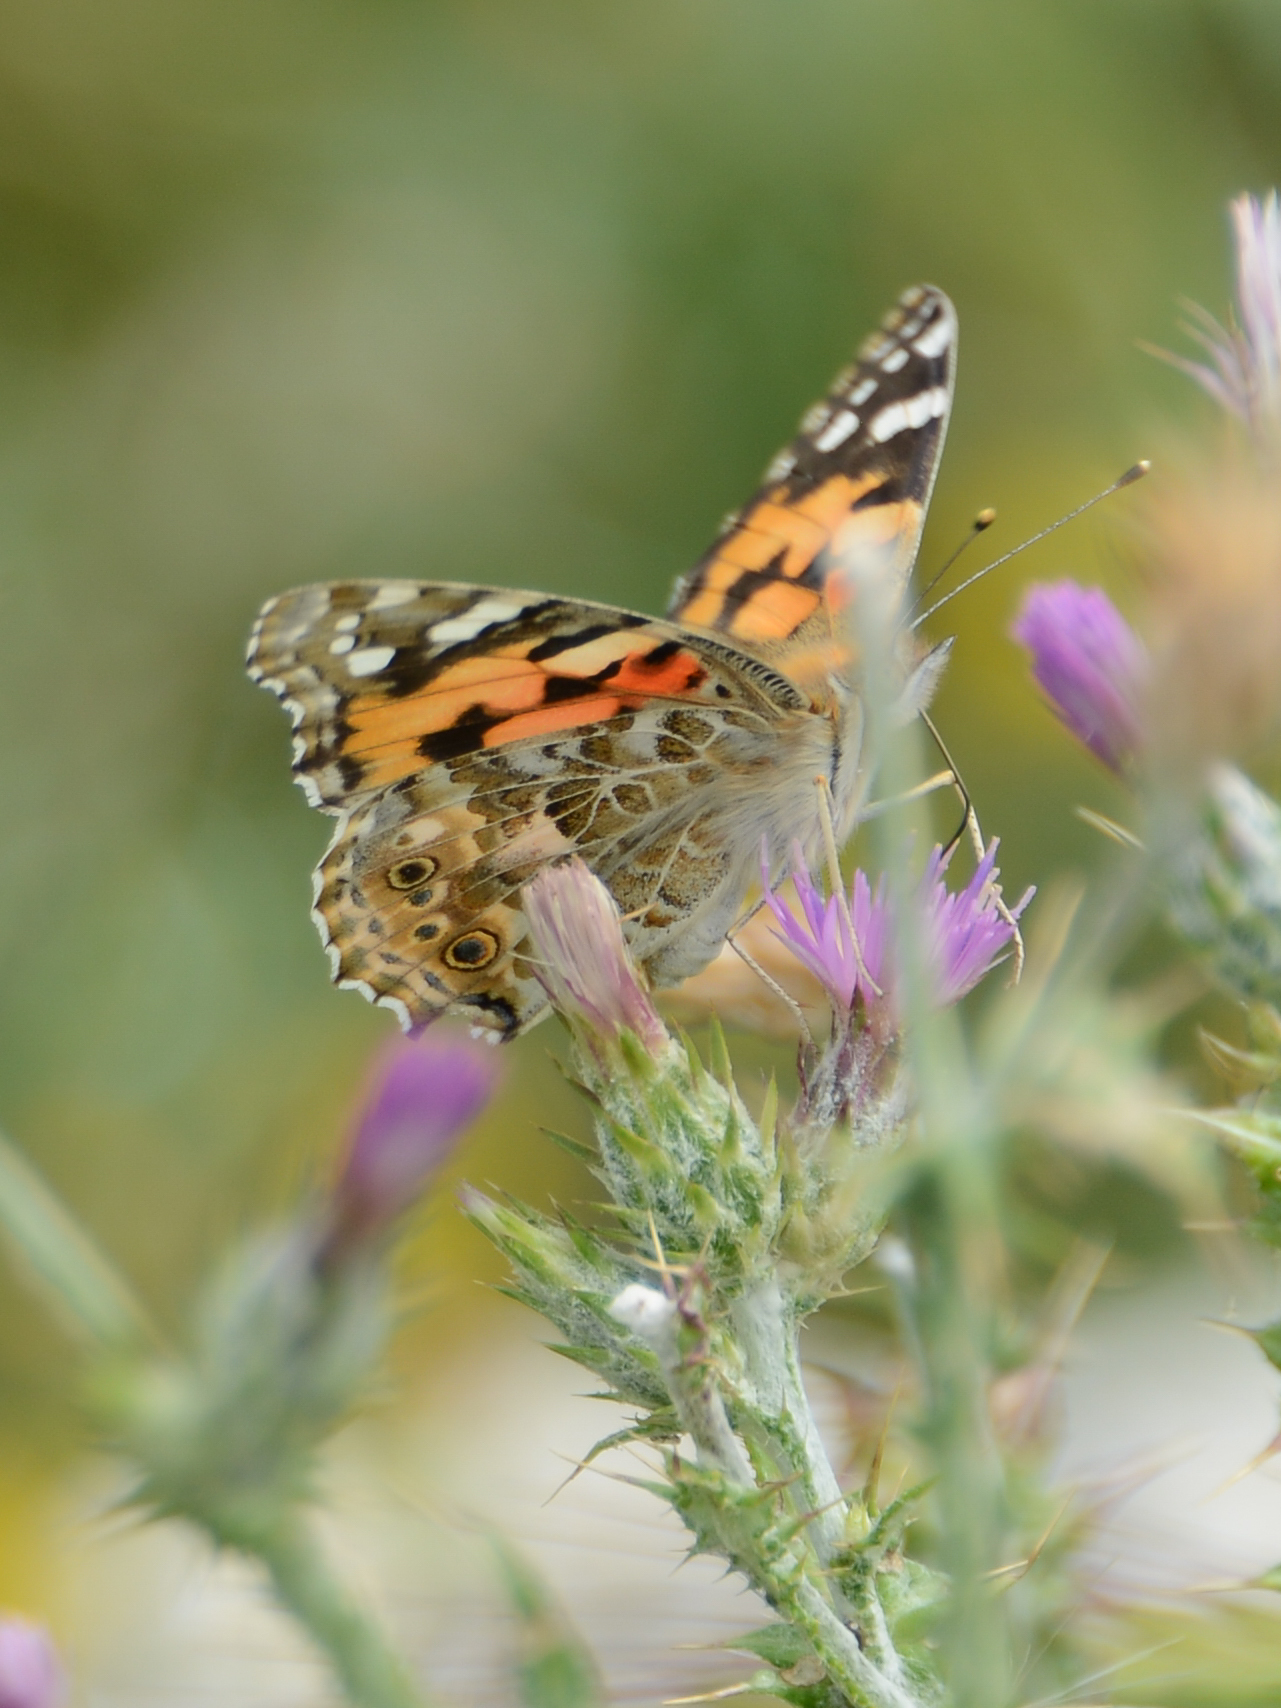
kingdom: Animalia
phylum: Arthropoda
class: Insecta
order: Lepidoptera
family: Nymphalidae
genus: Vanessa
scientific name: Vanessa cardui
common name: Painted lady
